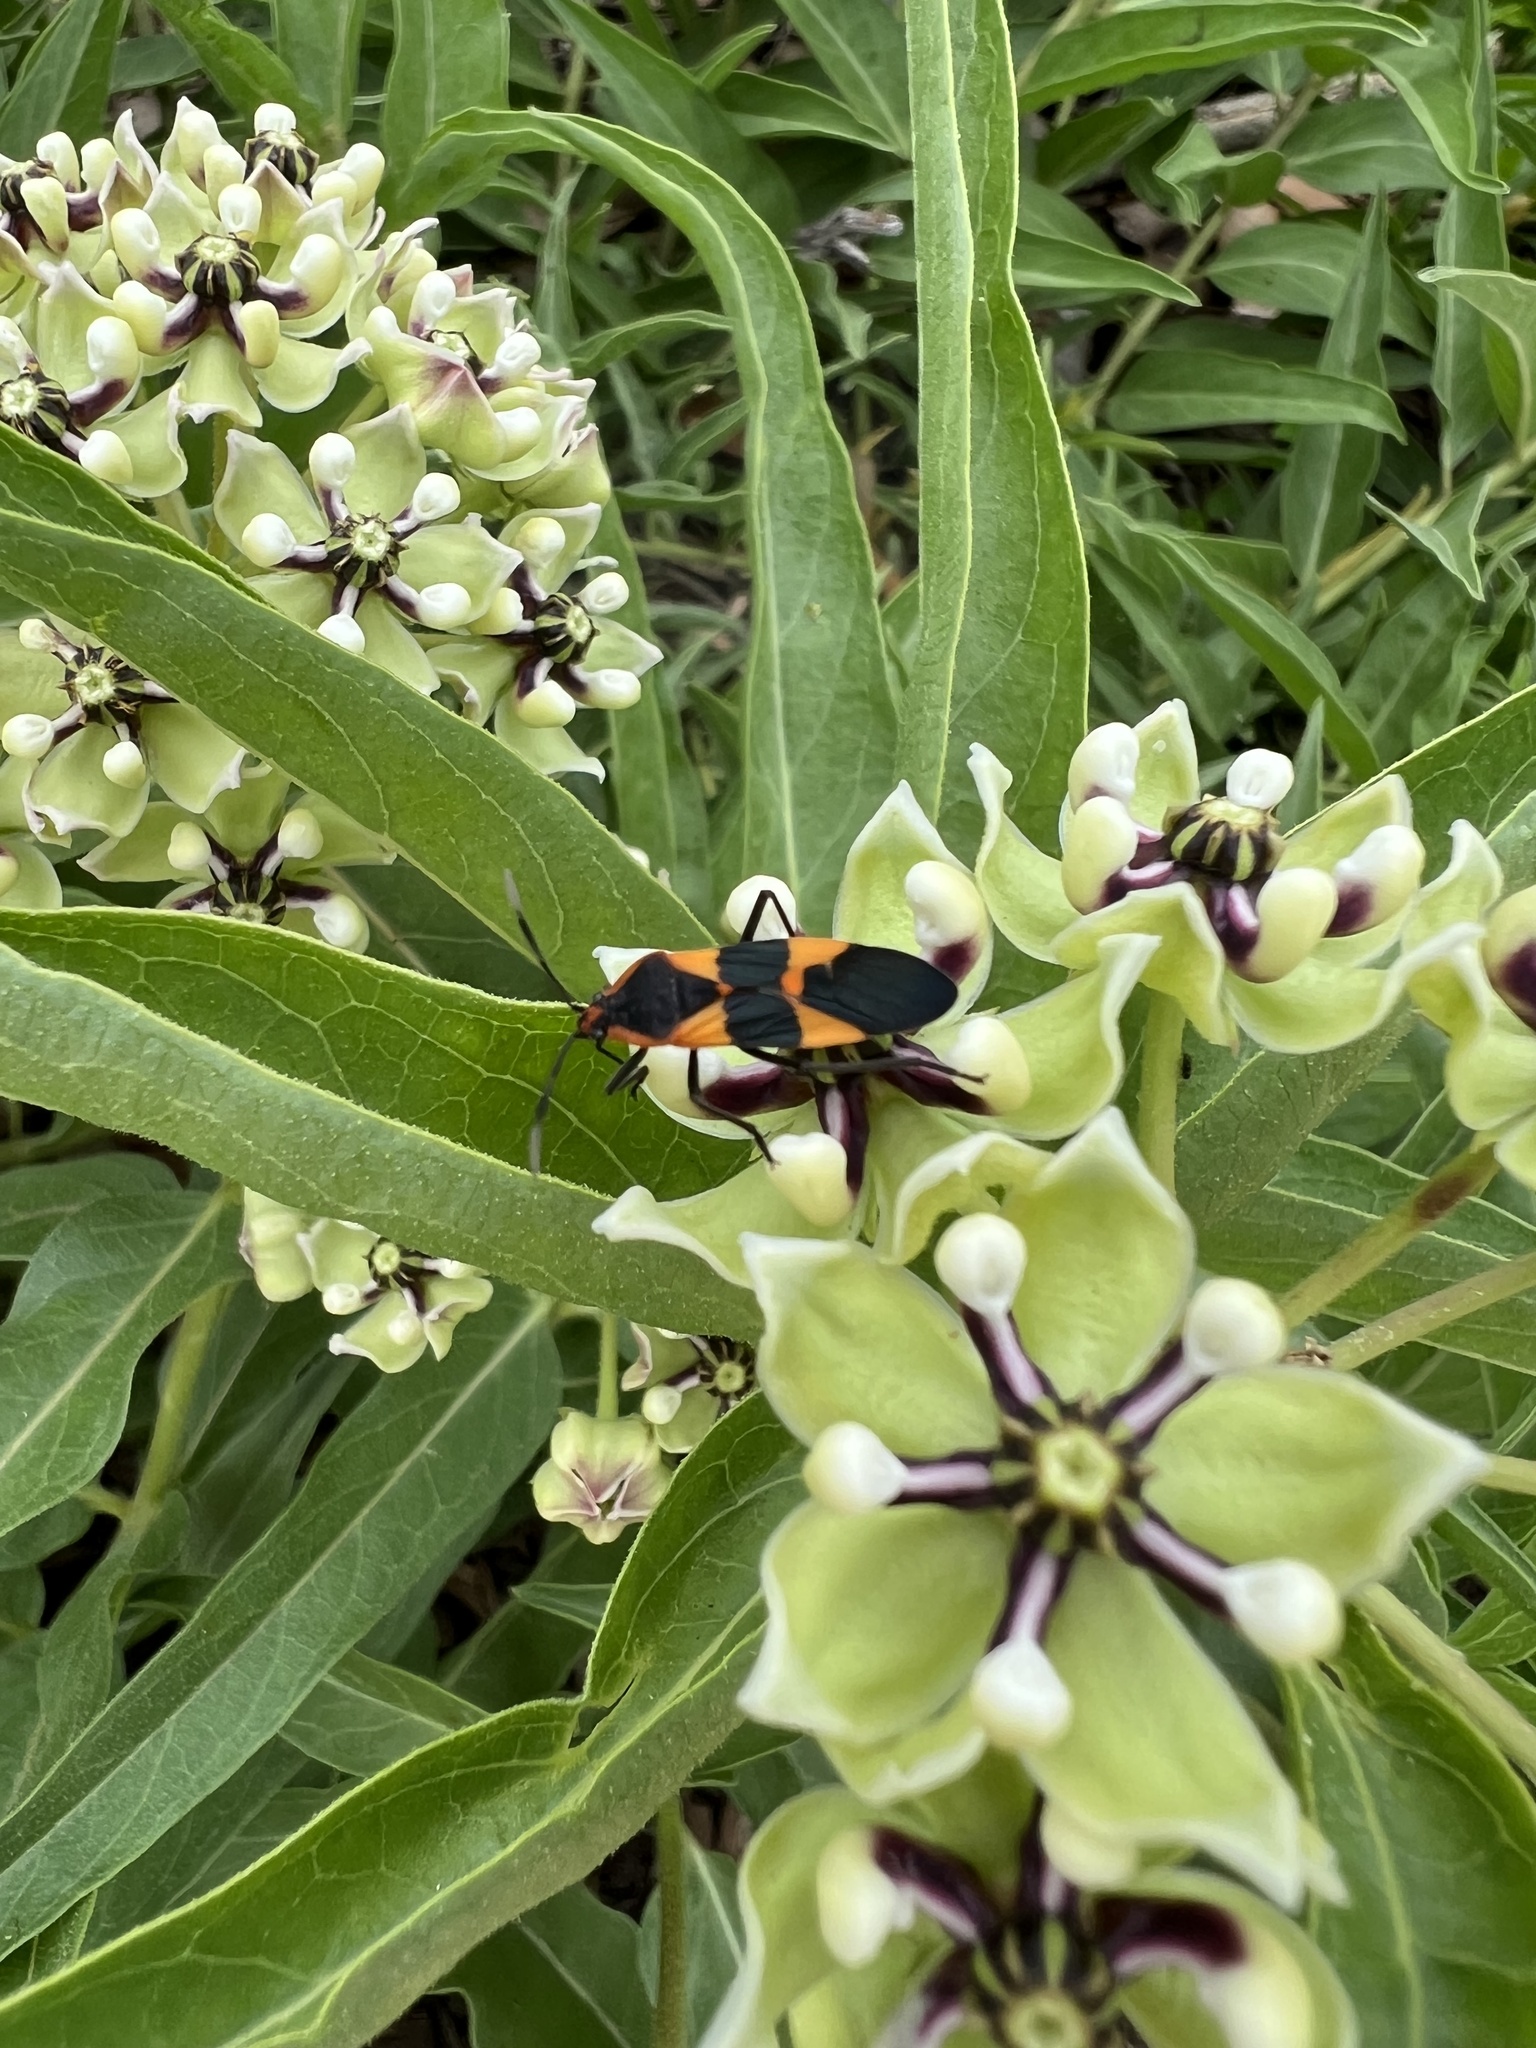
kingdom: Animalia
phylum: Arthropoda
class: Insecta
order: Hemiptera
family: Lygaeidae
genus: Oncopeltus
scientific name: Oncopeltus fasciatus
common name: Large milkweed bug
